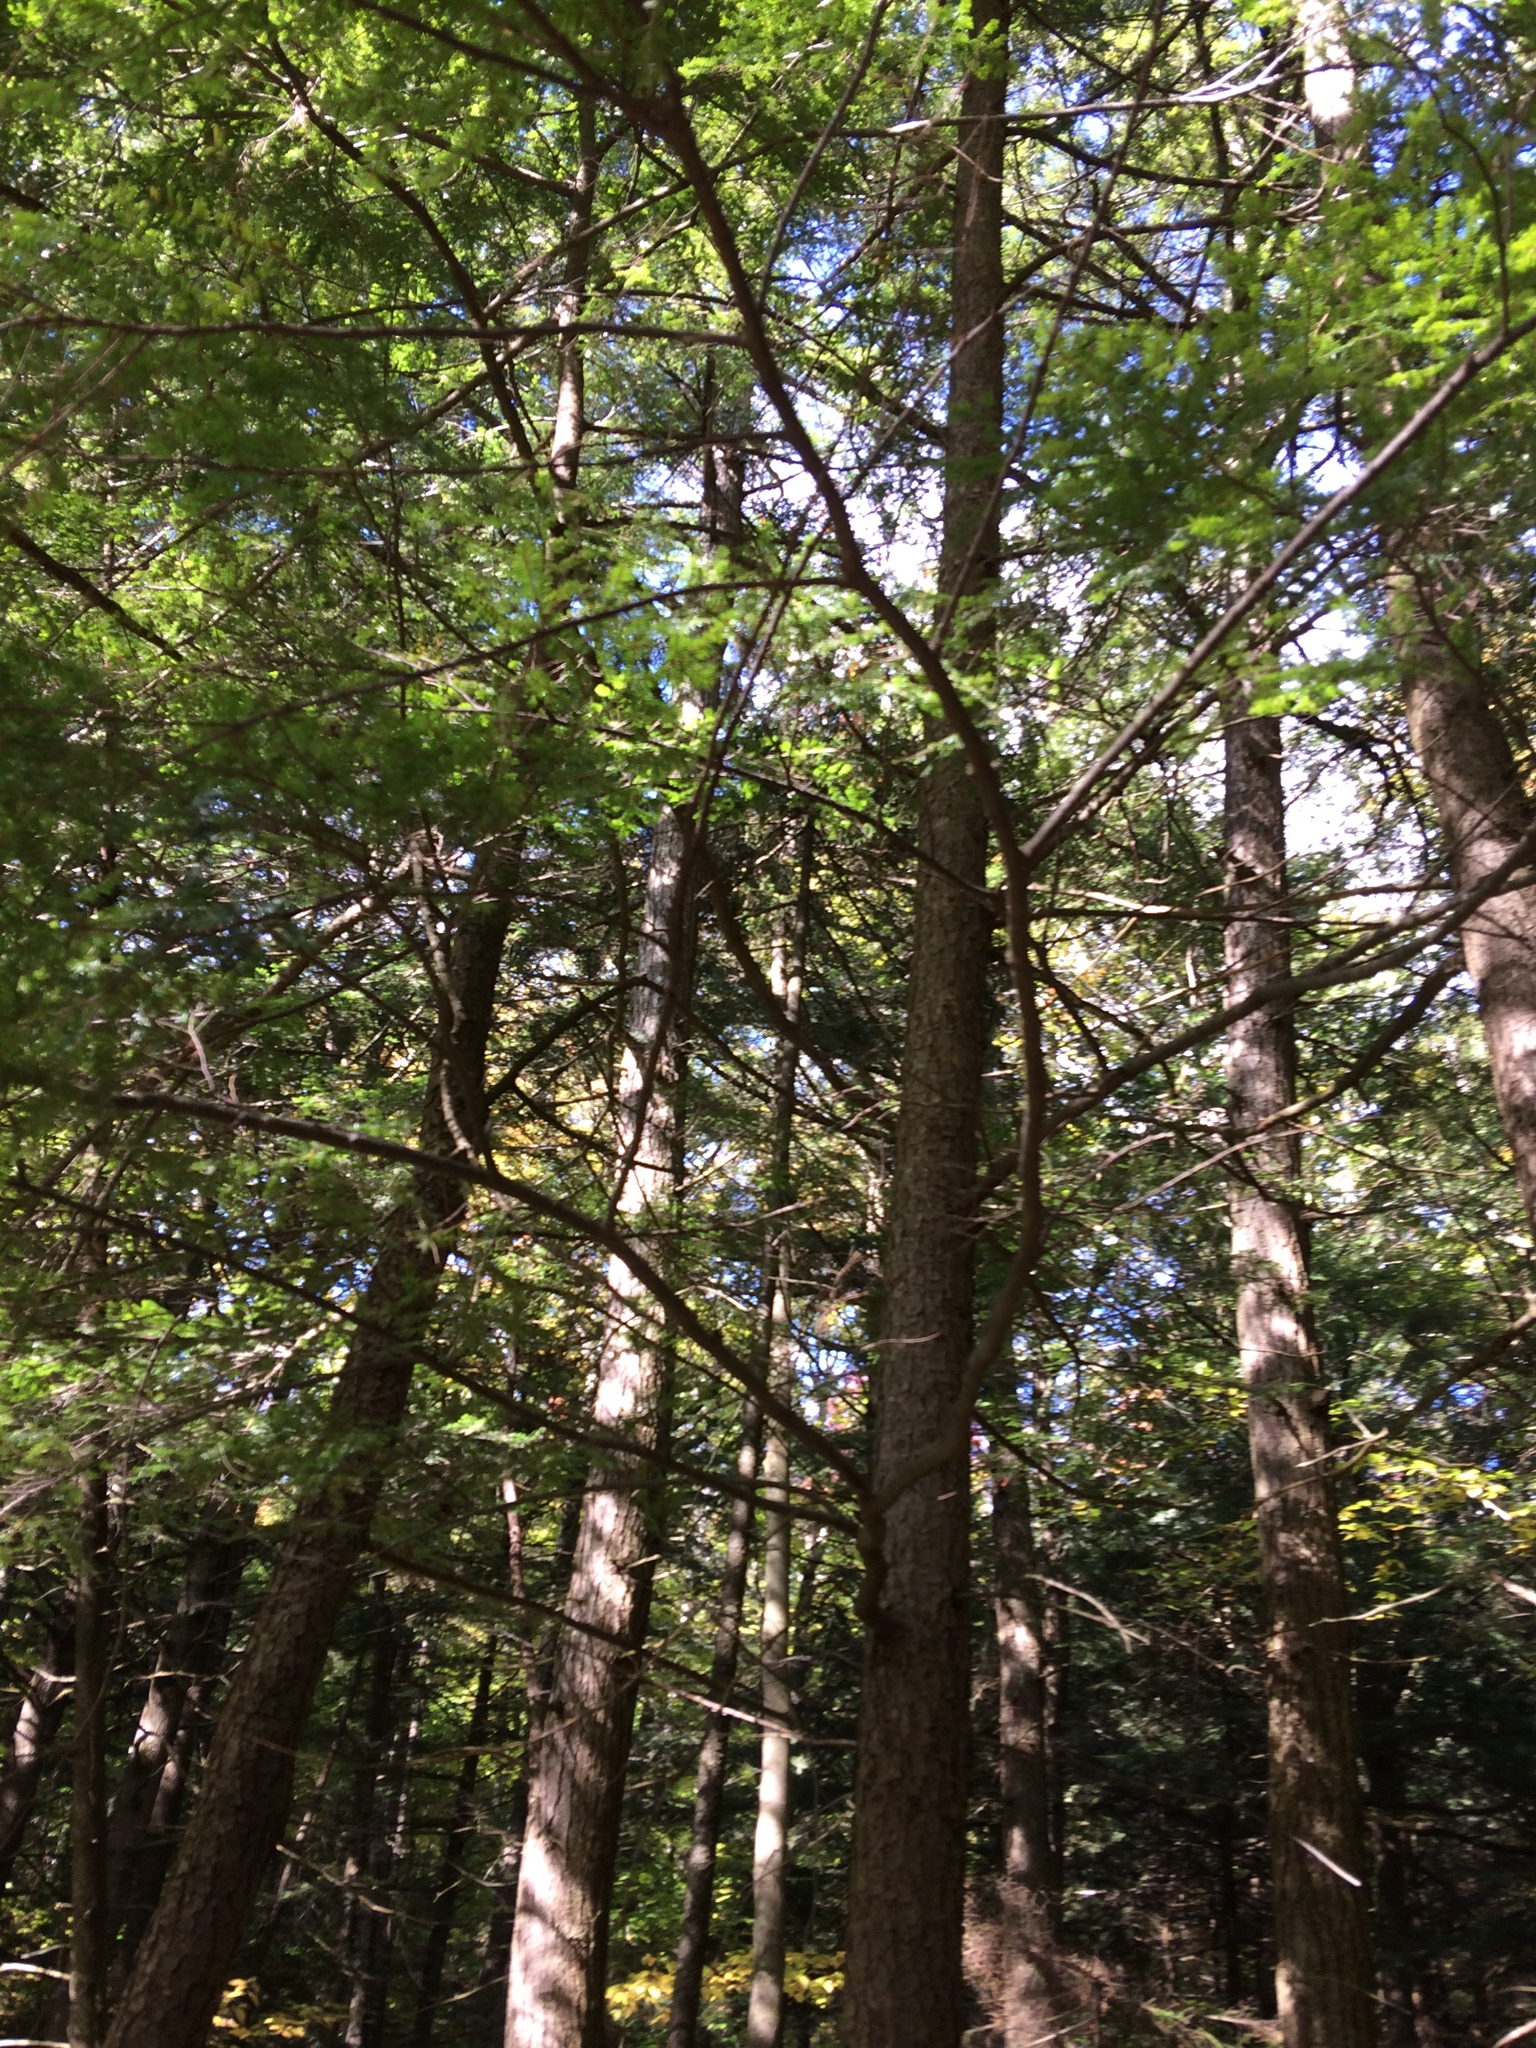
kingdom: Plantae
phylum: Tracheophyta
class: Pinopsida
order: Pinales
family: Pinaceae
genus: Tsuga
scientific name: Tsuga canadensis
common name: Eastern hemlock
